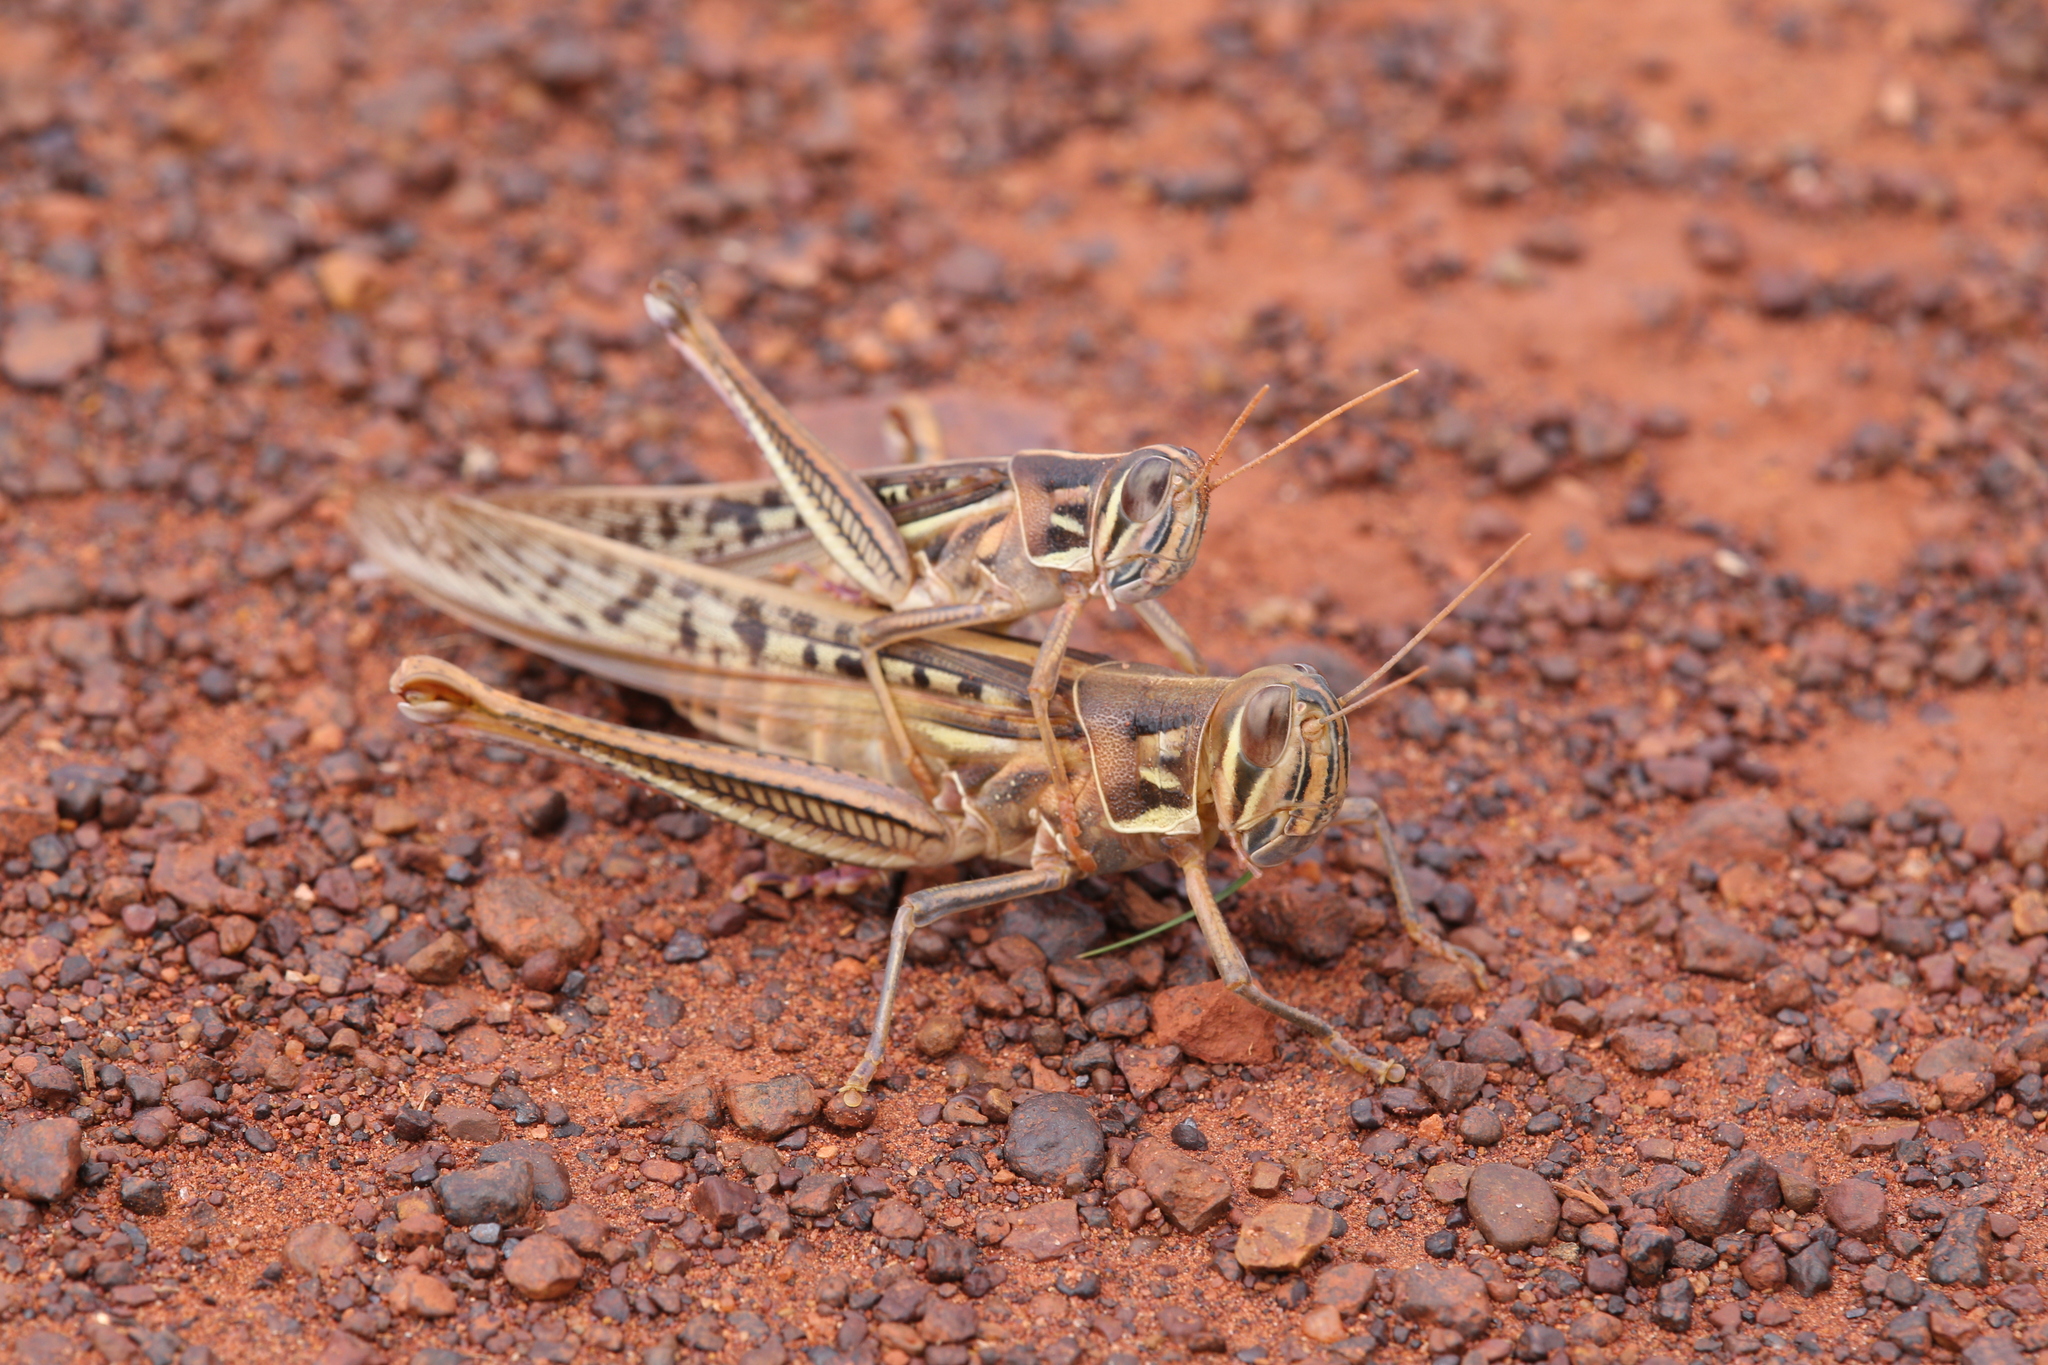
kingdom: Animalia
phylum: Arthropoda
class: Insecta
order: Orthoptera
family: Acrididae
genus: Austracris
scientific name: Austracris guttulosa
